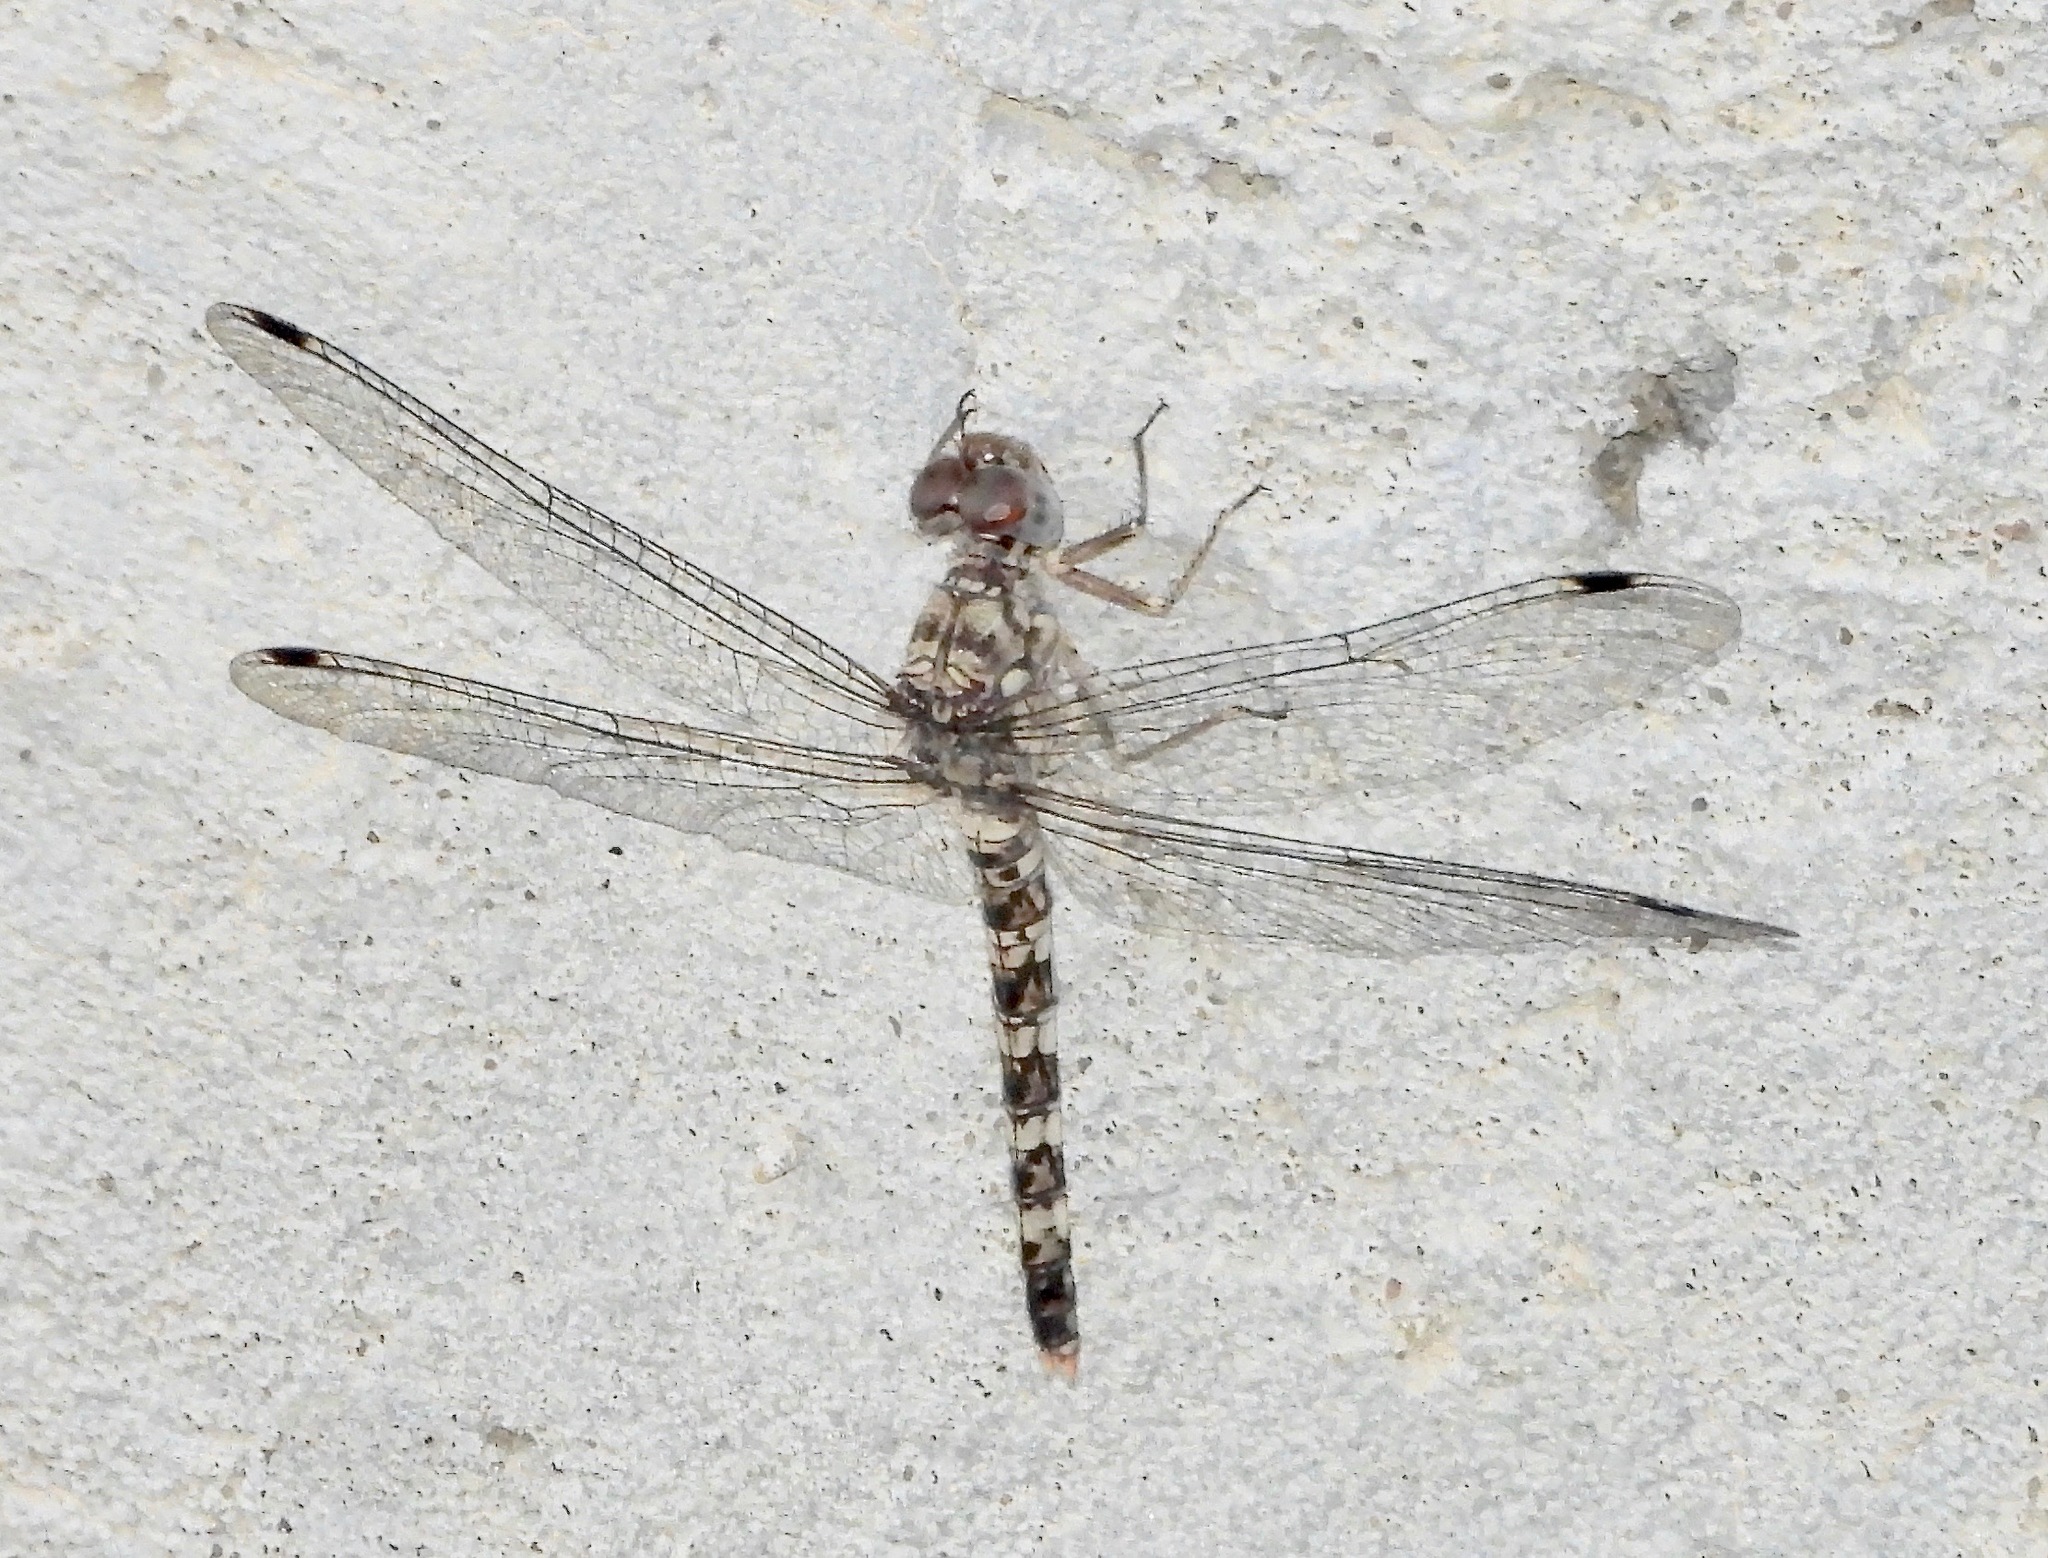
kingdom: Animalia
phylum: Arthropoda
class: Insecta
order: Odonata
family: Libellulidae
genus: Bradinopyga
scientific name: Bradinopyga geminata
